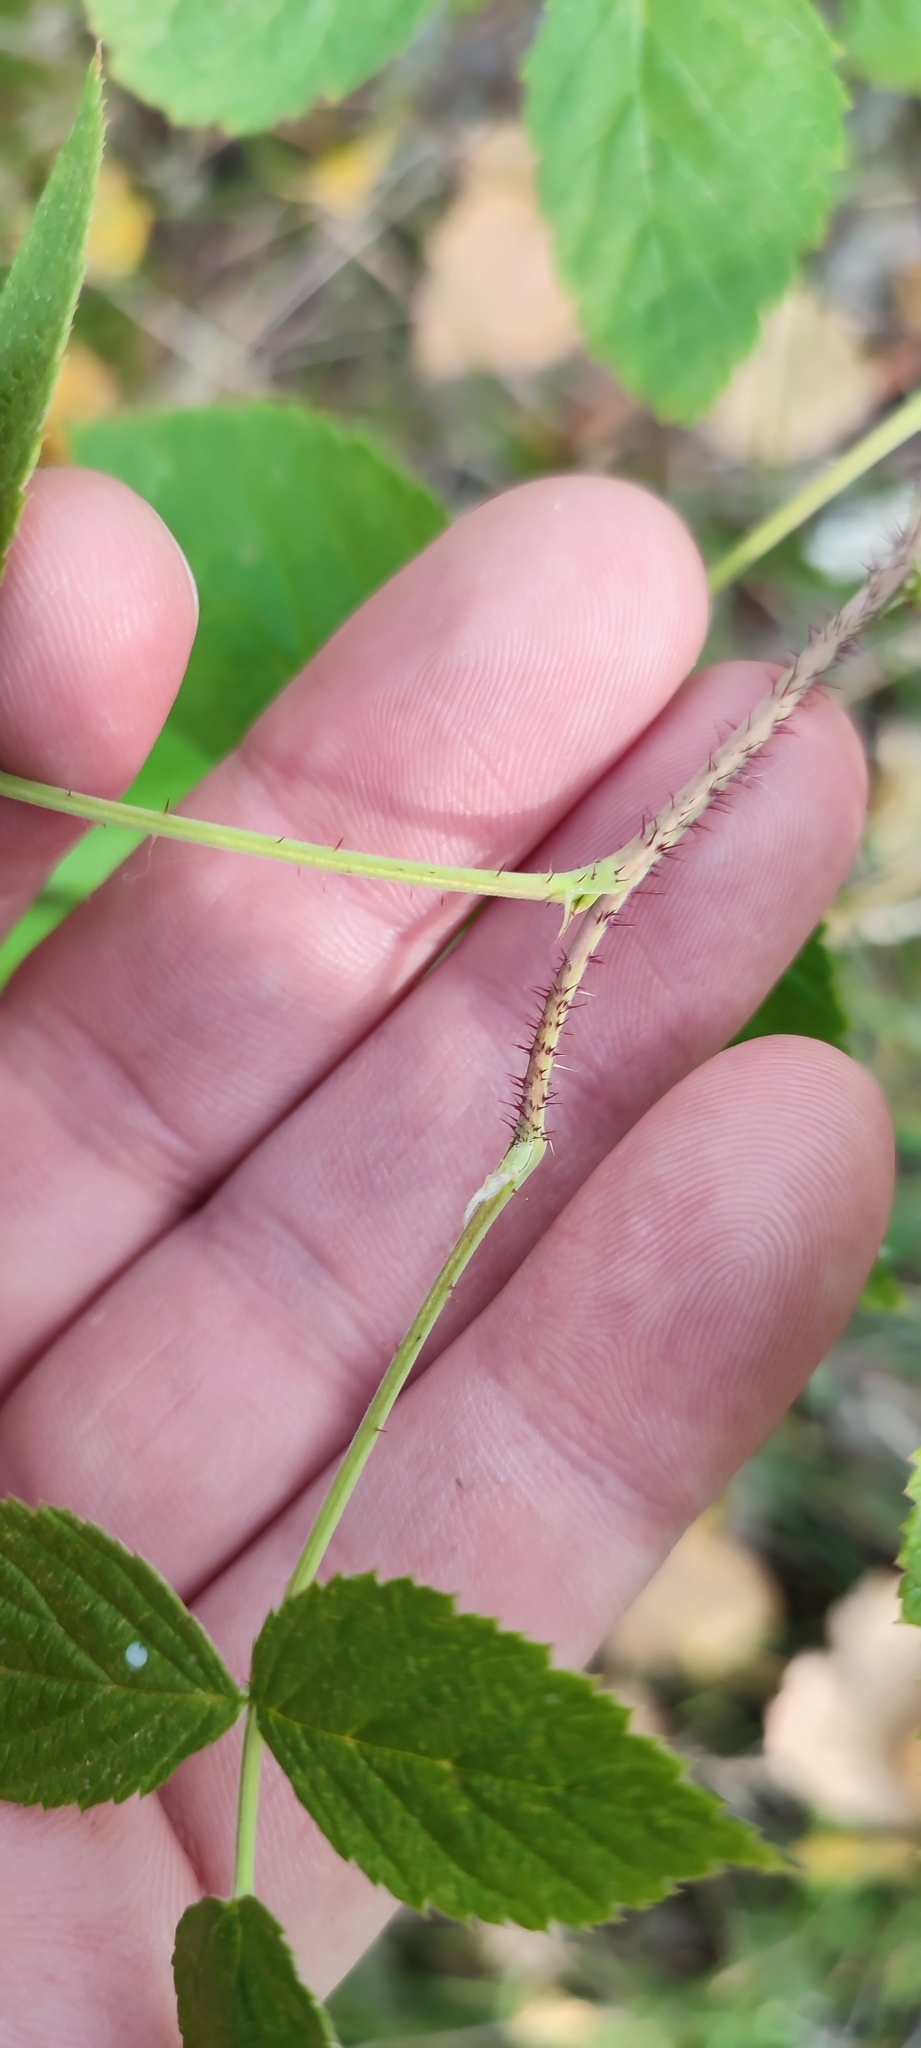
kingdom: Plantae
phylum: Tracheophyta
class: Magnoliopsida
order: Rosales
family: Rosaceae
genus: Rubus
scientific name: Rubus idaeus
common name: Raspberry
